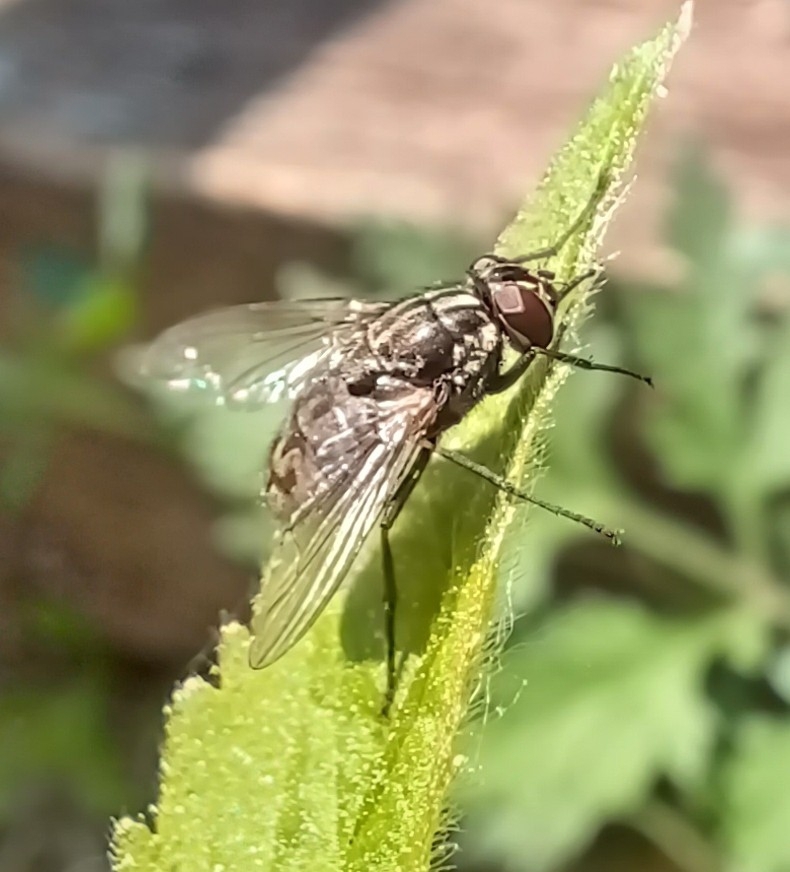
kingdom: Animalia
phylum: Arthropoda
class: Insecta
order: Diptera
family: Muscidae
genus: Stomoxys
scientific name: Stomoxys calcitrans
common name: Stable fly
